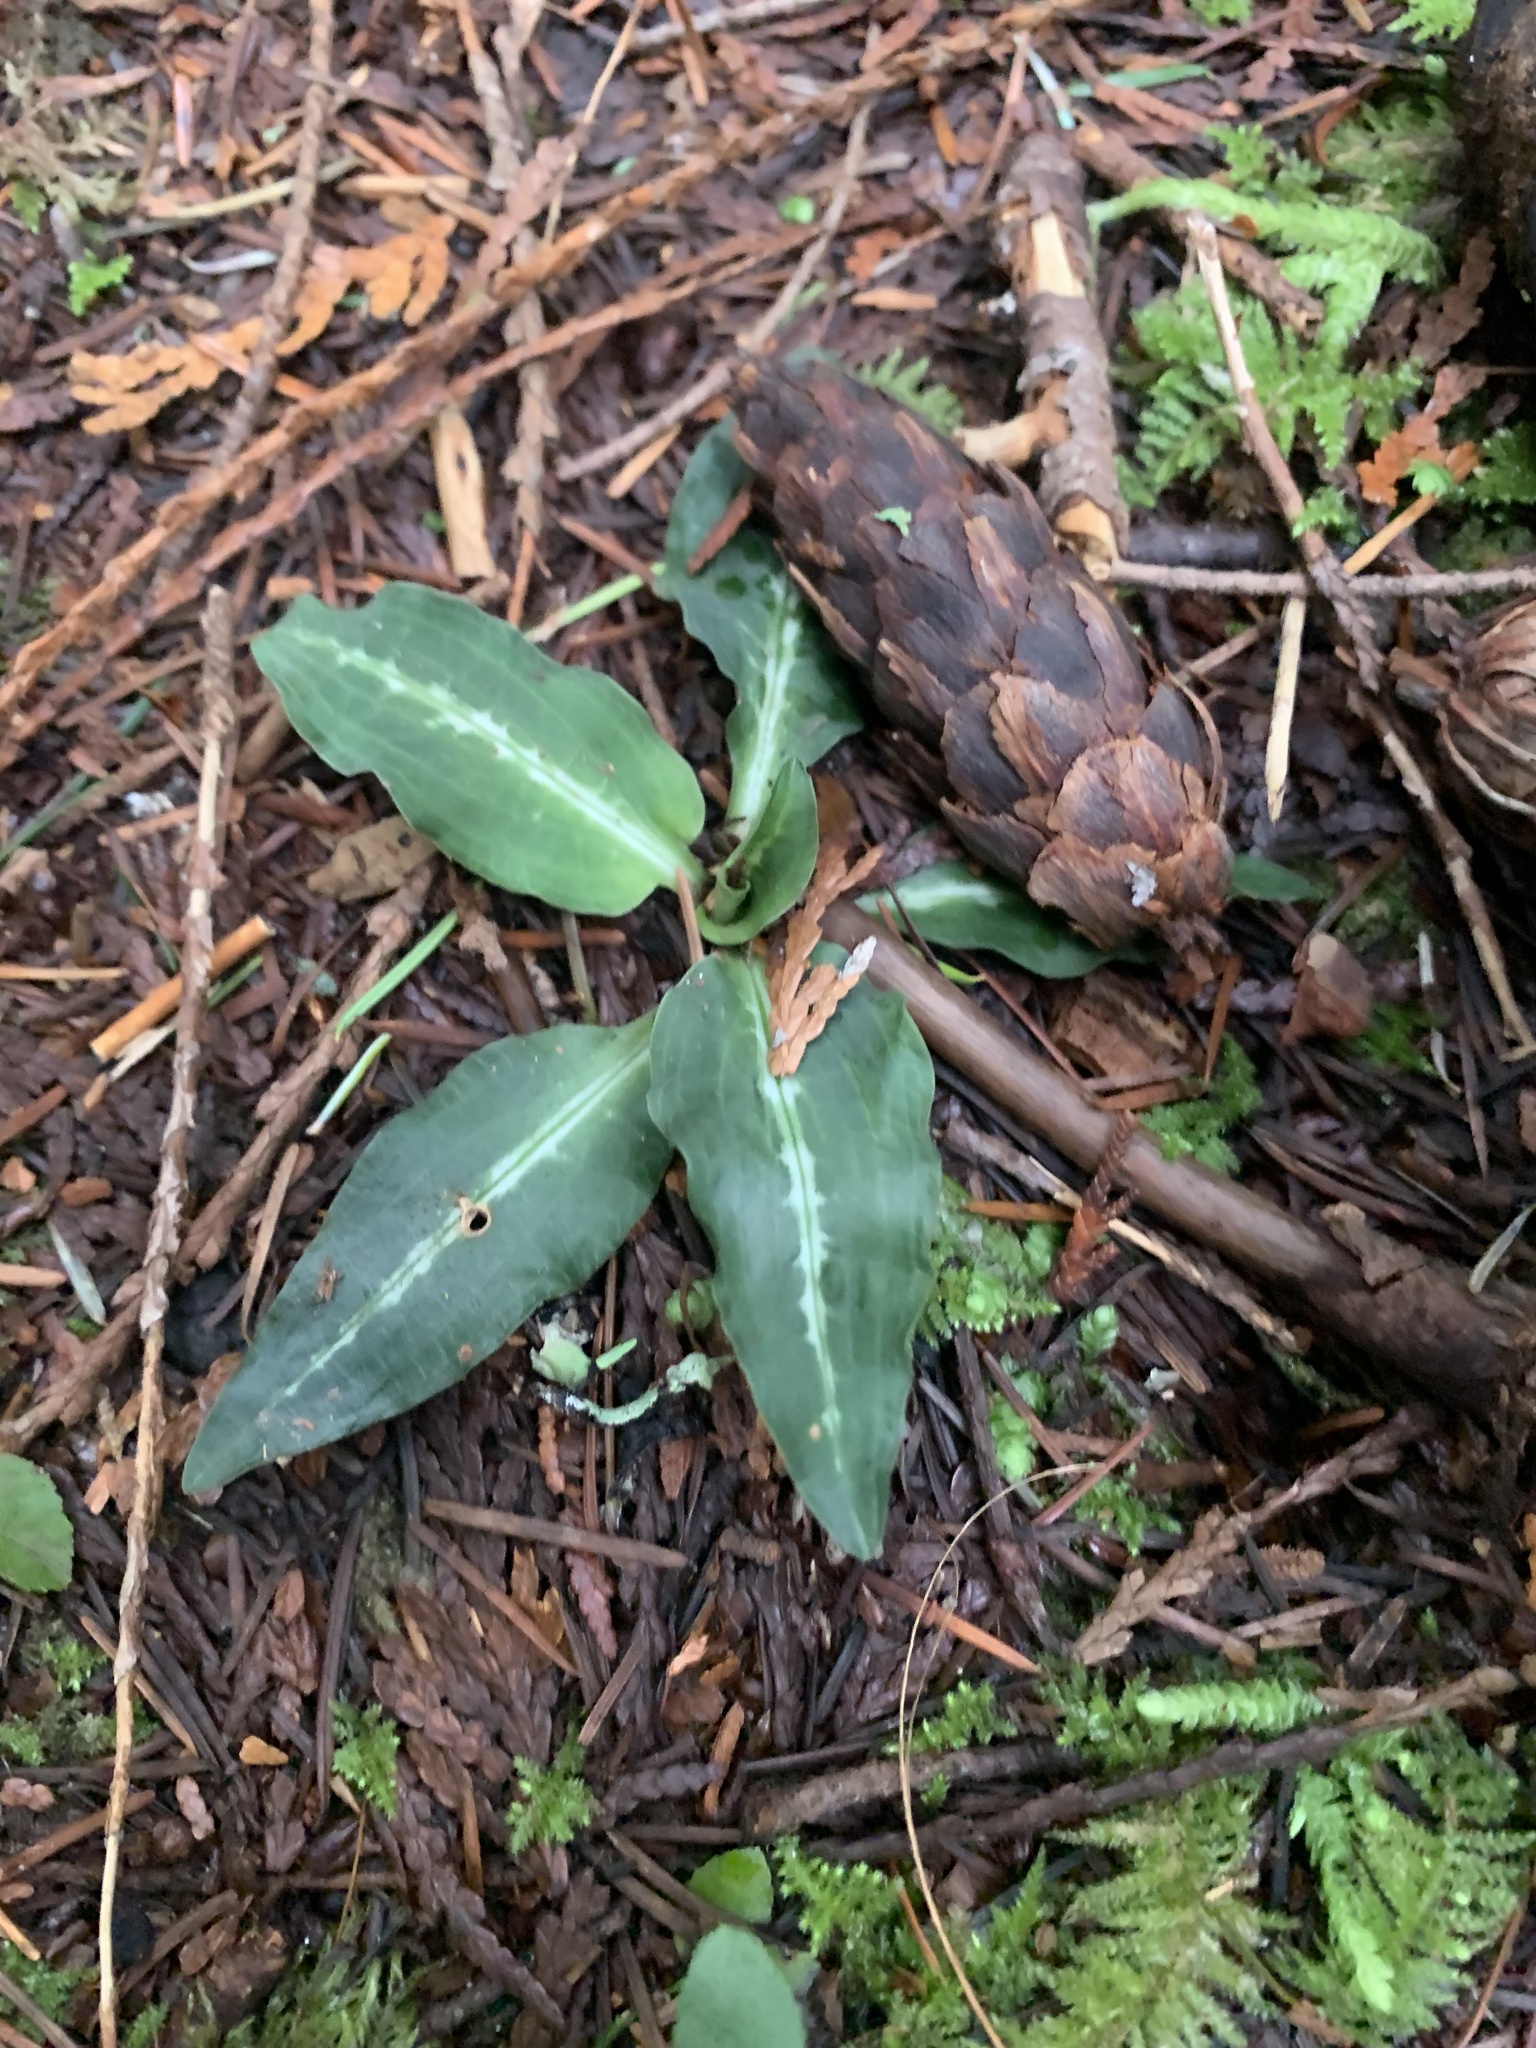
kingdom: Plantae
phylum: Tracheophyta
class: Liliopsida
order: Asparagales
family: Orchidaceae
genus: Goodyera
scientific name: Goodyera oblongifolia
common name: Giant rattlesnake-plantain
